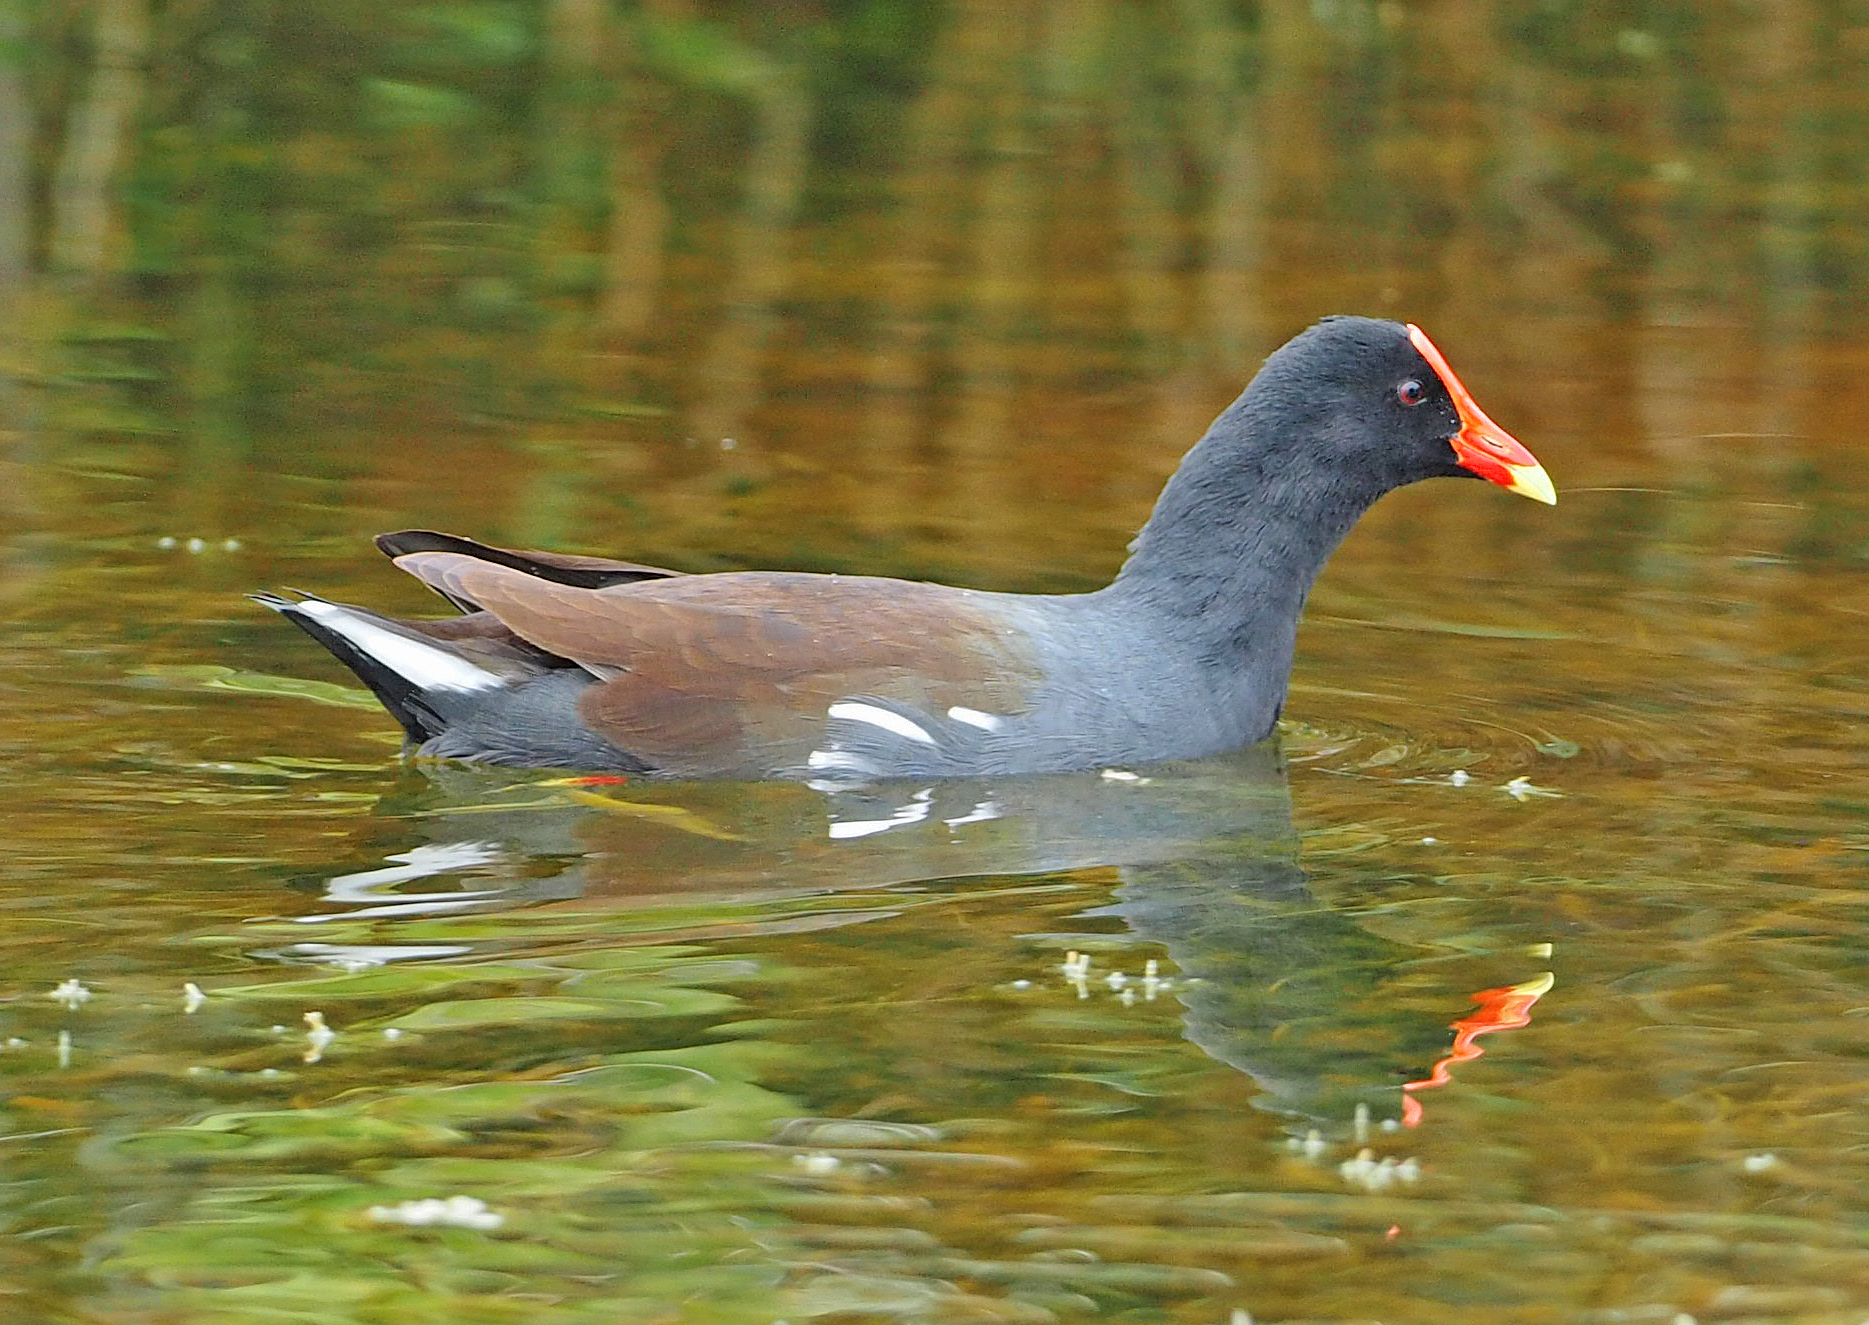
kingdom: Animalia
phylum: Chordata
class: Aves
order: Gruiformes
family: Rallidae
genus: Gallinula
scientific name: Gallinula chloropus
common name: Common moorhen
